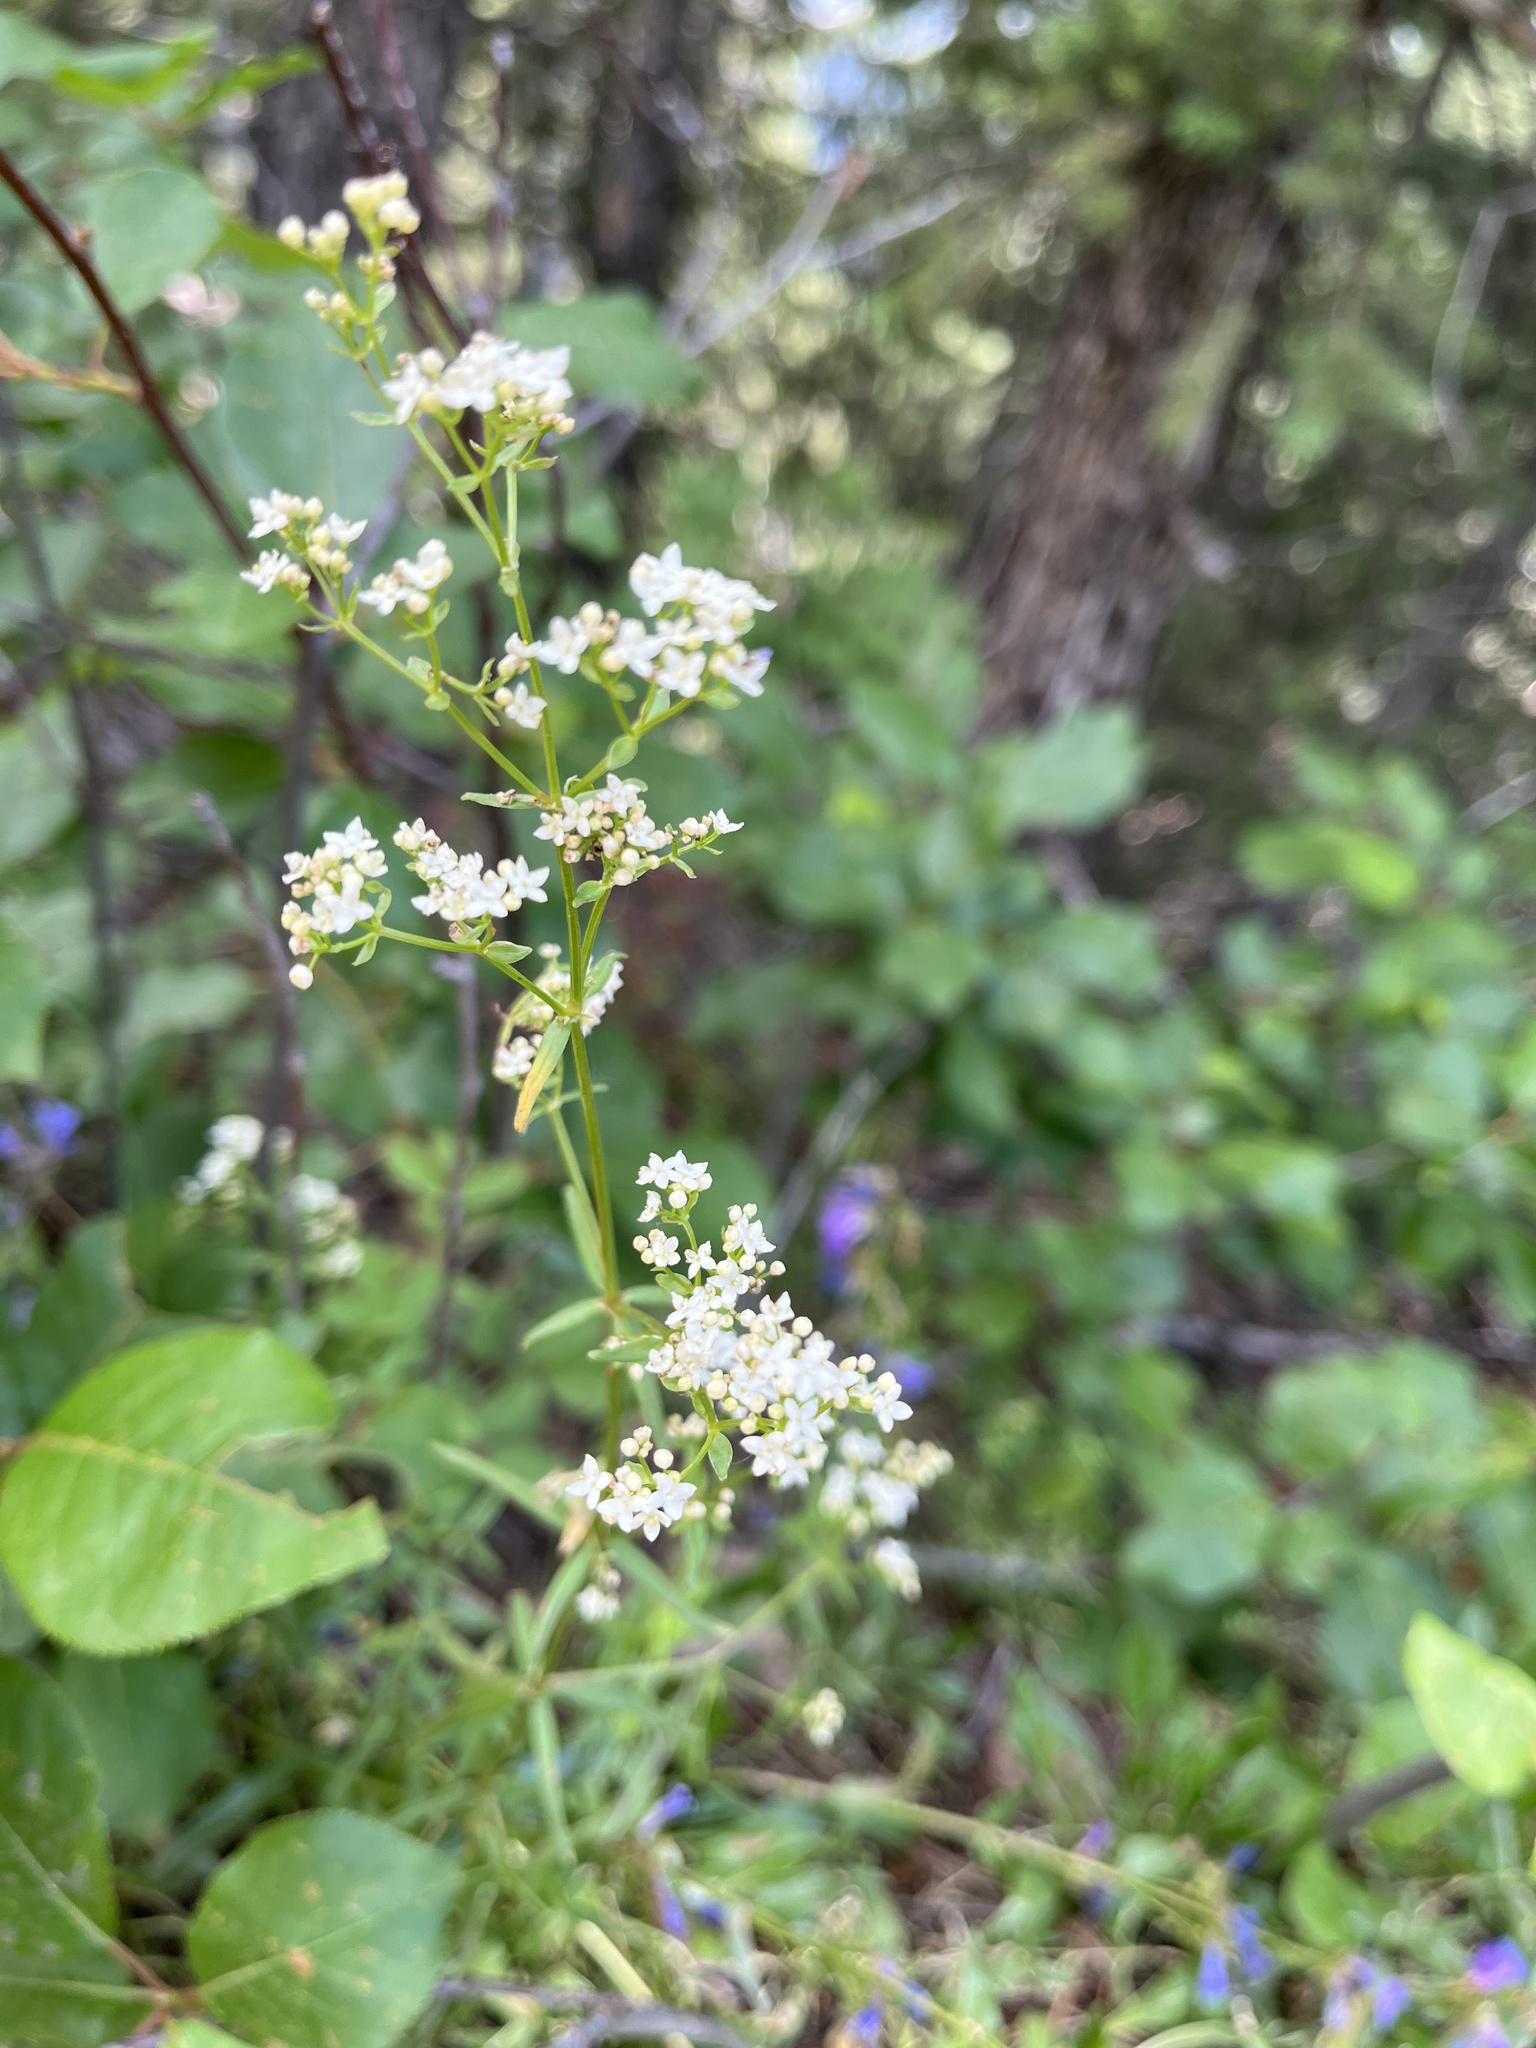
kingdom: Plantae
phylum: Tracheophyta
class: Magnoliopsida
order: Gentianales
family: Rubiaceae
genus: Galium
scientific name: Galium boreale
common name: Northern bedstraw
